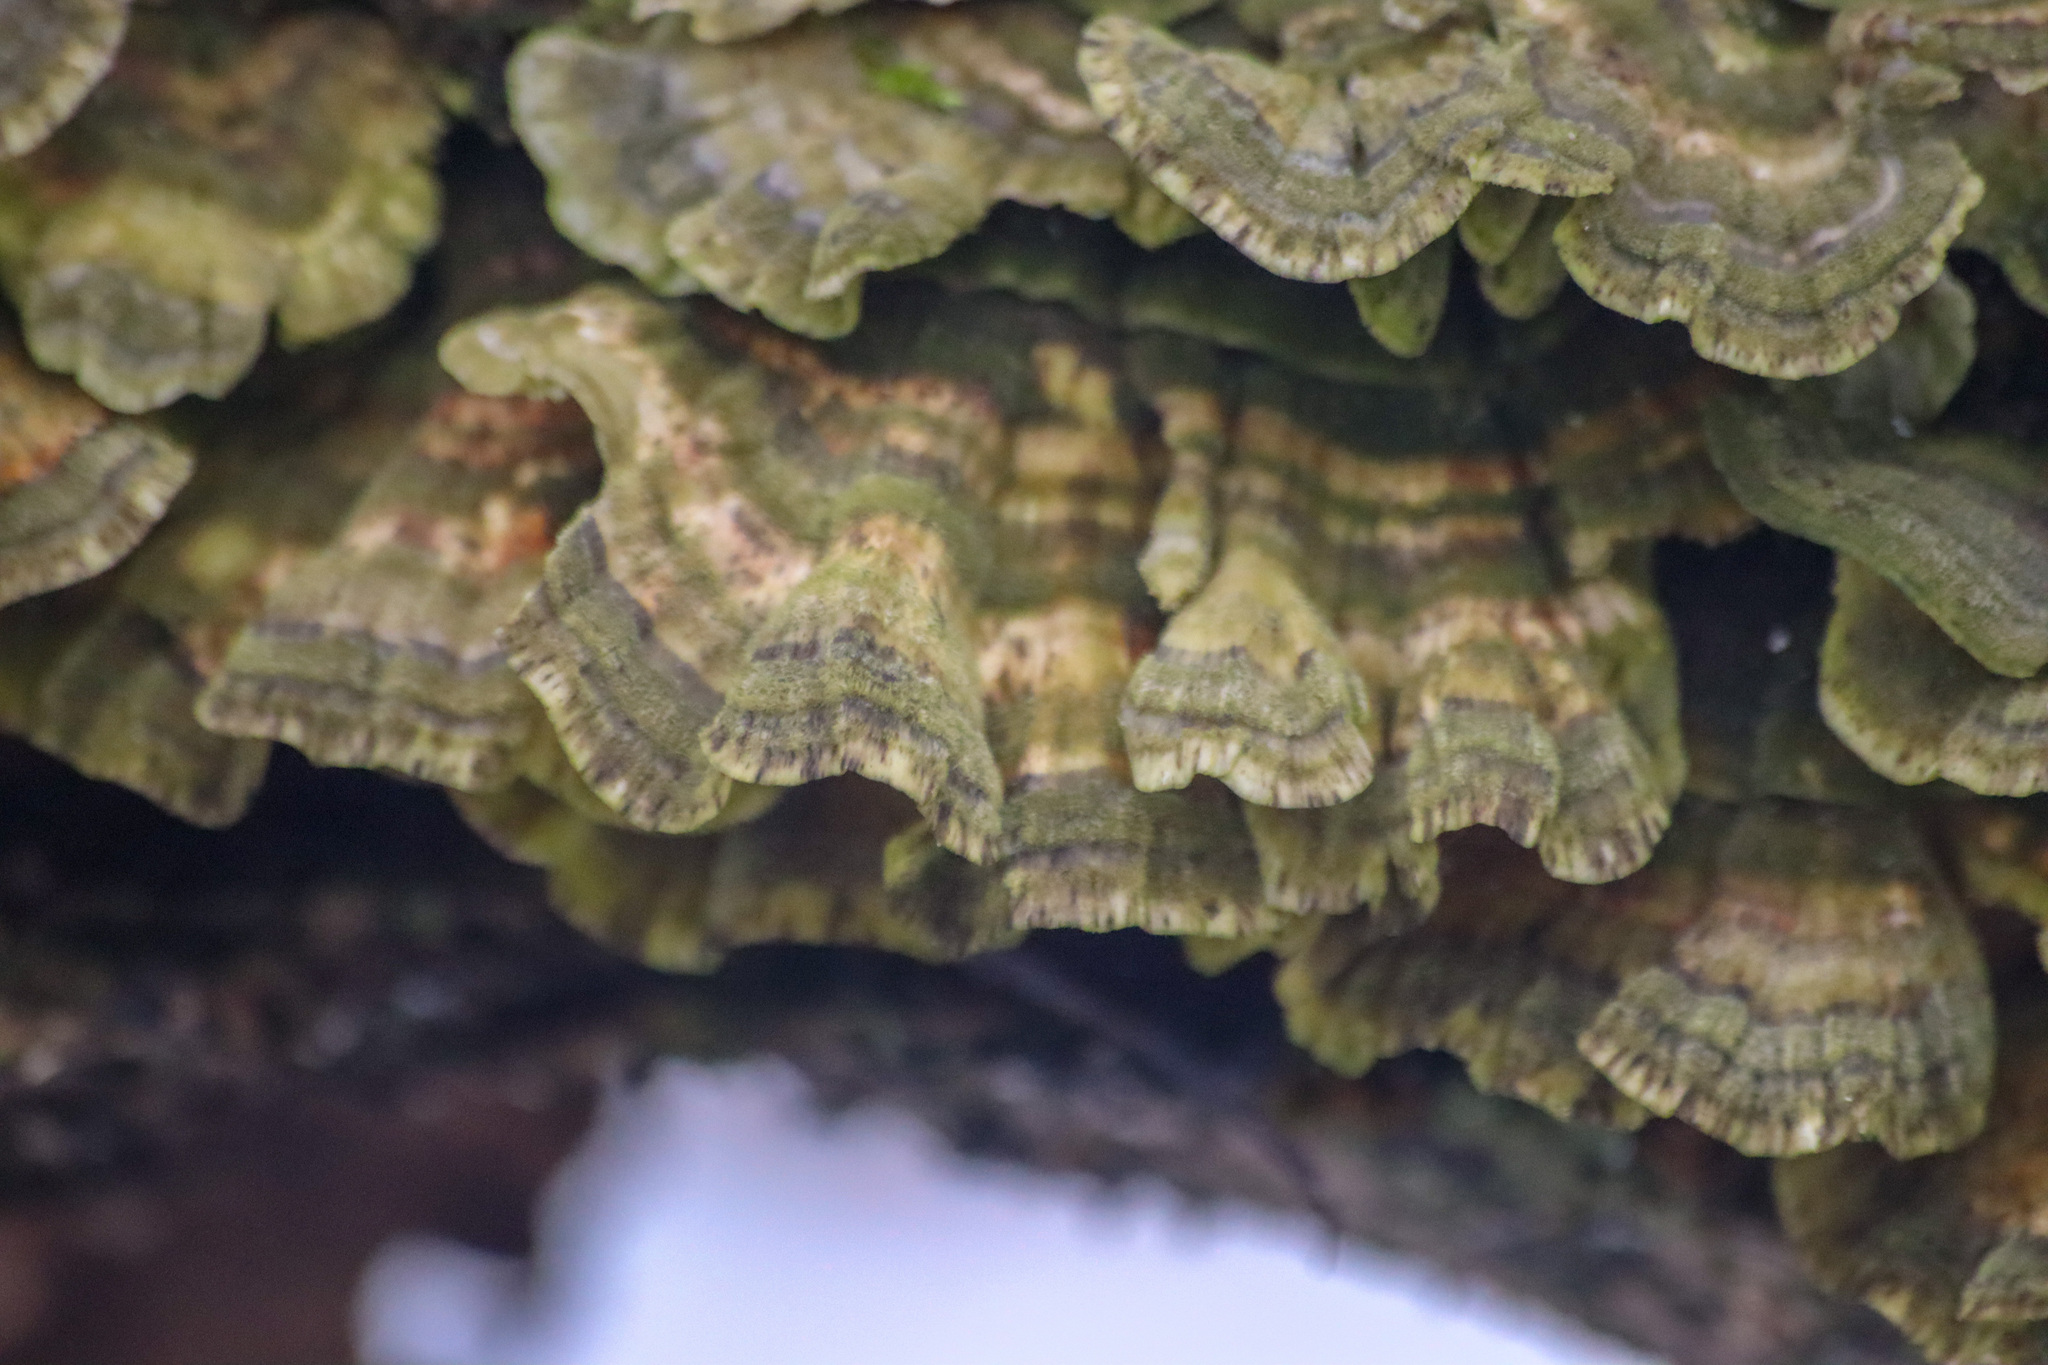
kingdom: Fungi
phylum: Basidiomycota
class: Agaricomycetes
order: Polyporales
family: Polyporaceae
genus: Trametes
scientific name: Trametes versicolor
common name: Turkeytail
